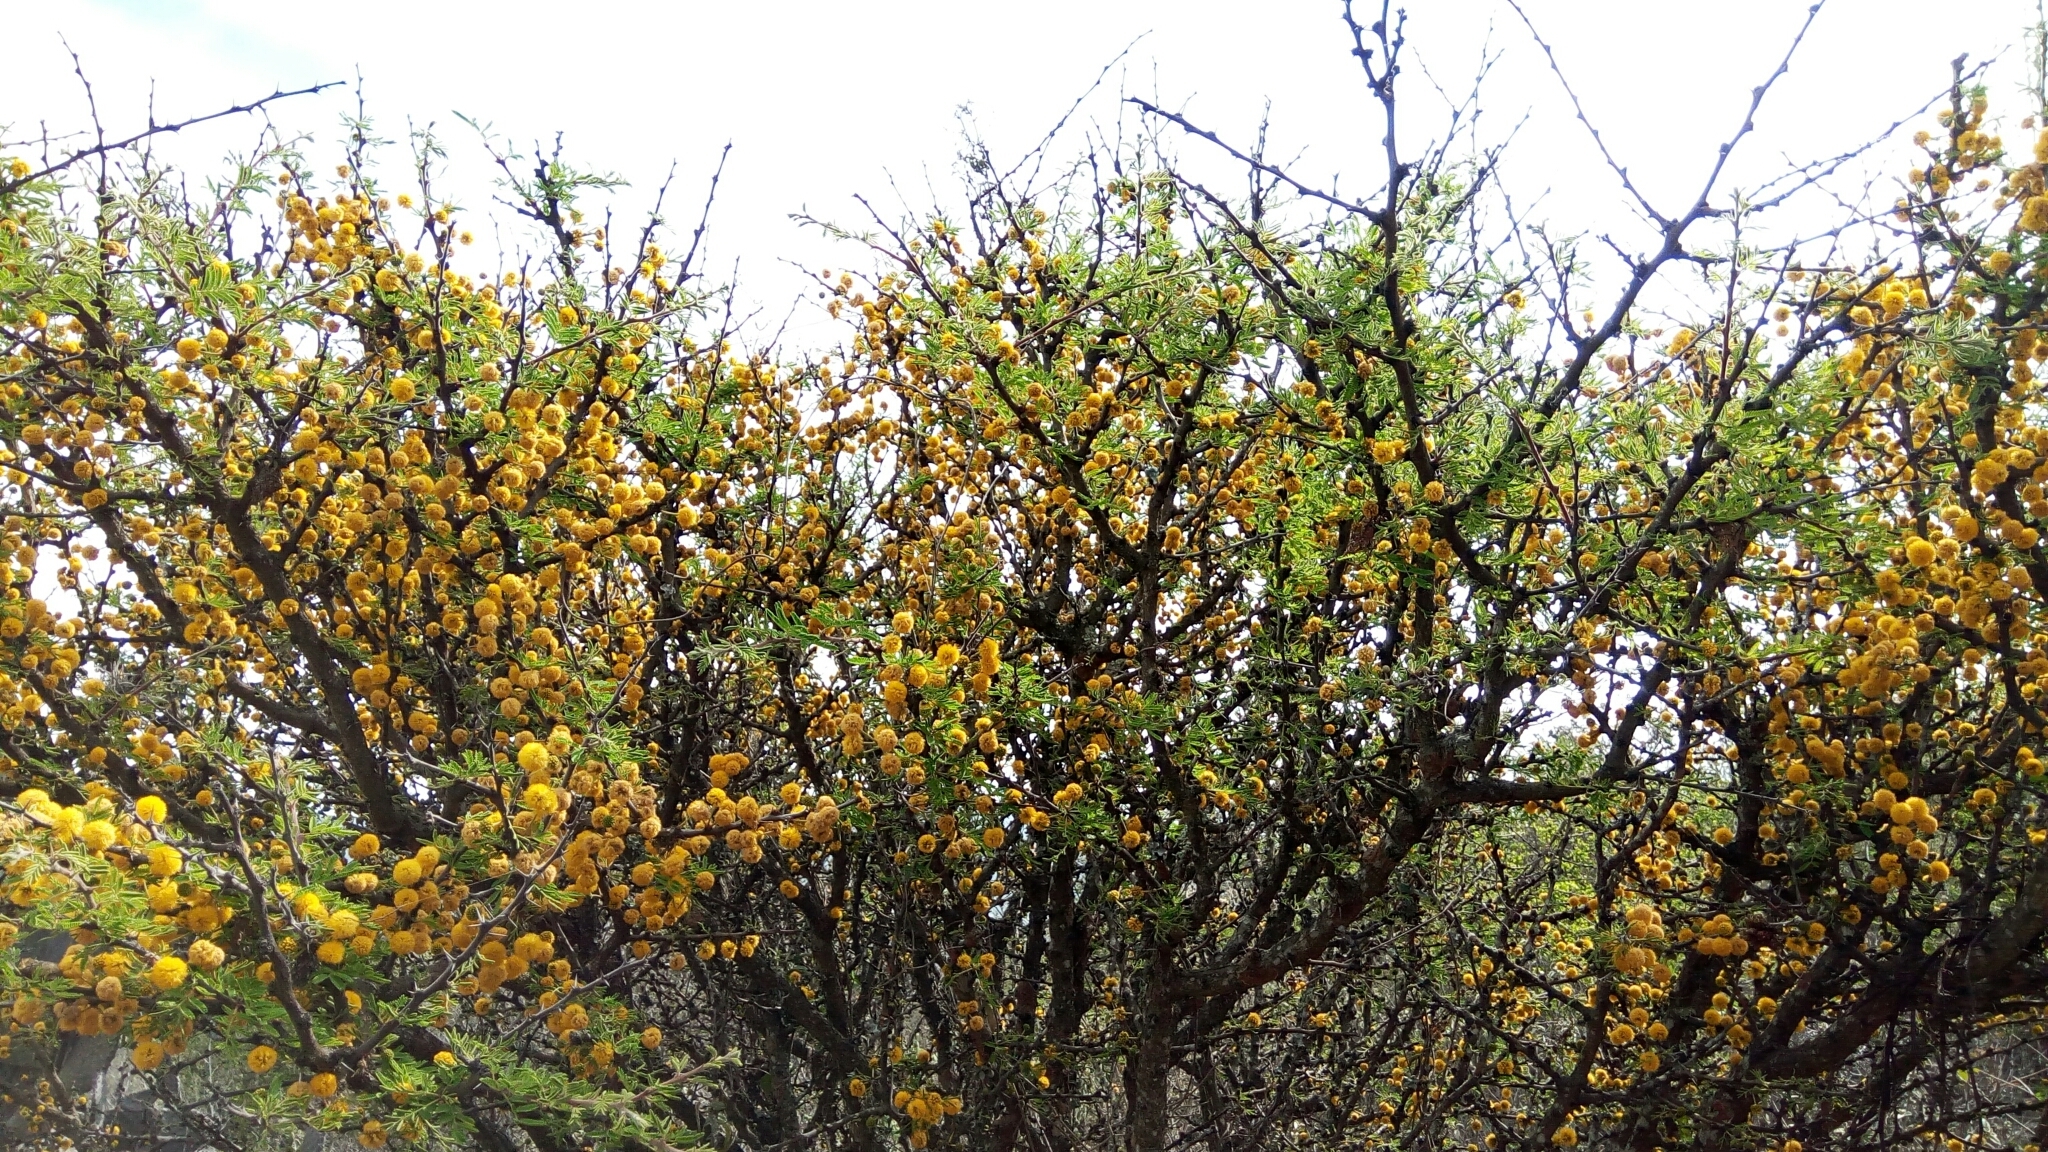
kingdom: Plantae
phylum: Tracheophyta
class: Magnoliopsida
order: Fabales
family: Fabaceae
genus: Vachellia
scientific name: Vachellia farnesiana
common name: Sweet acacia
